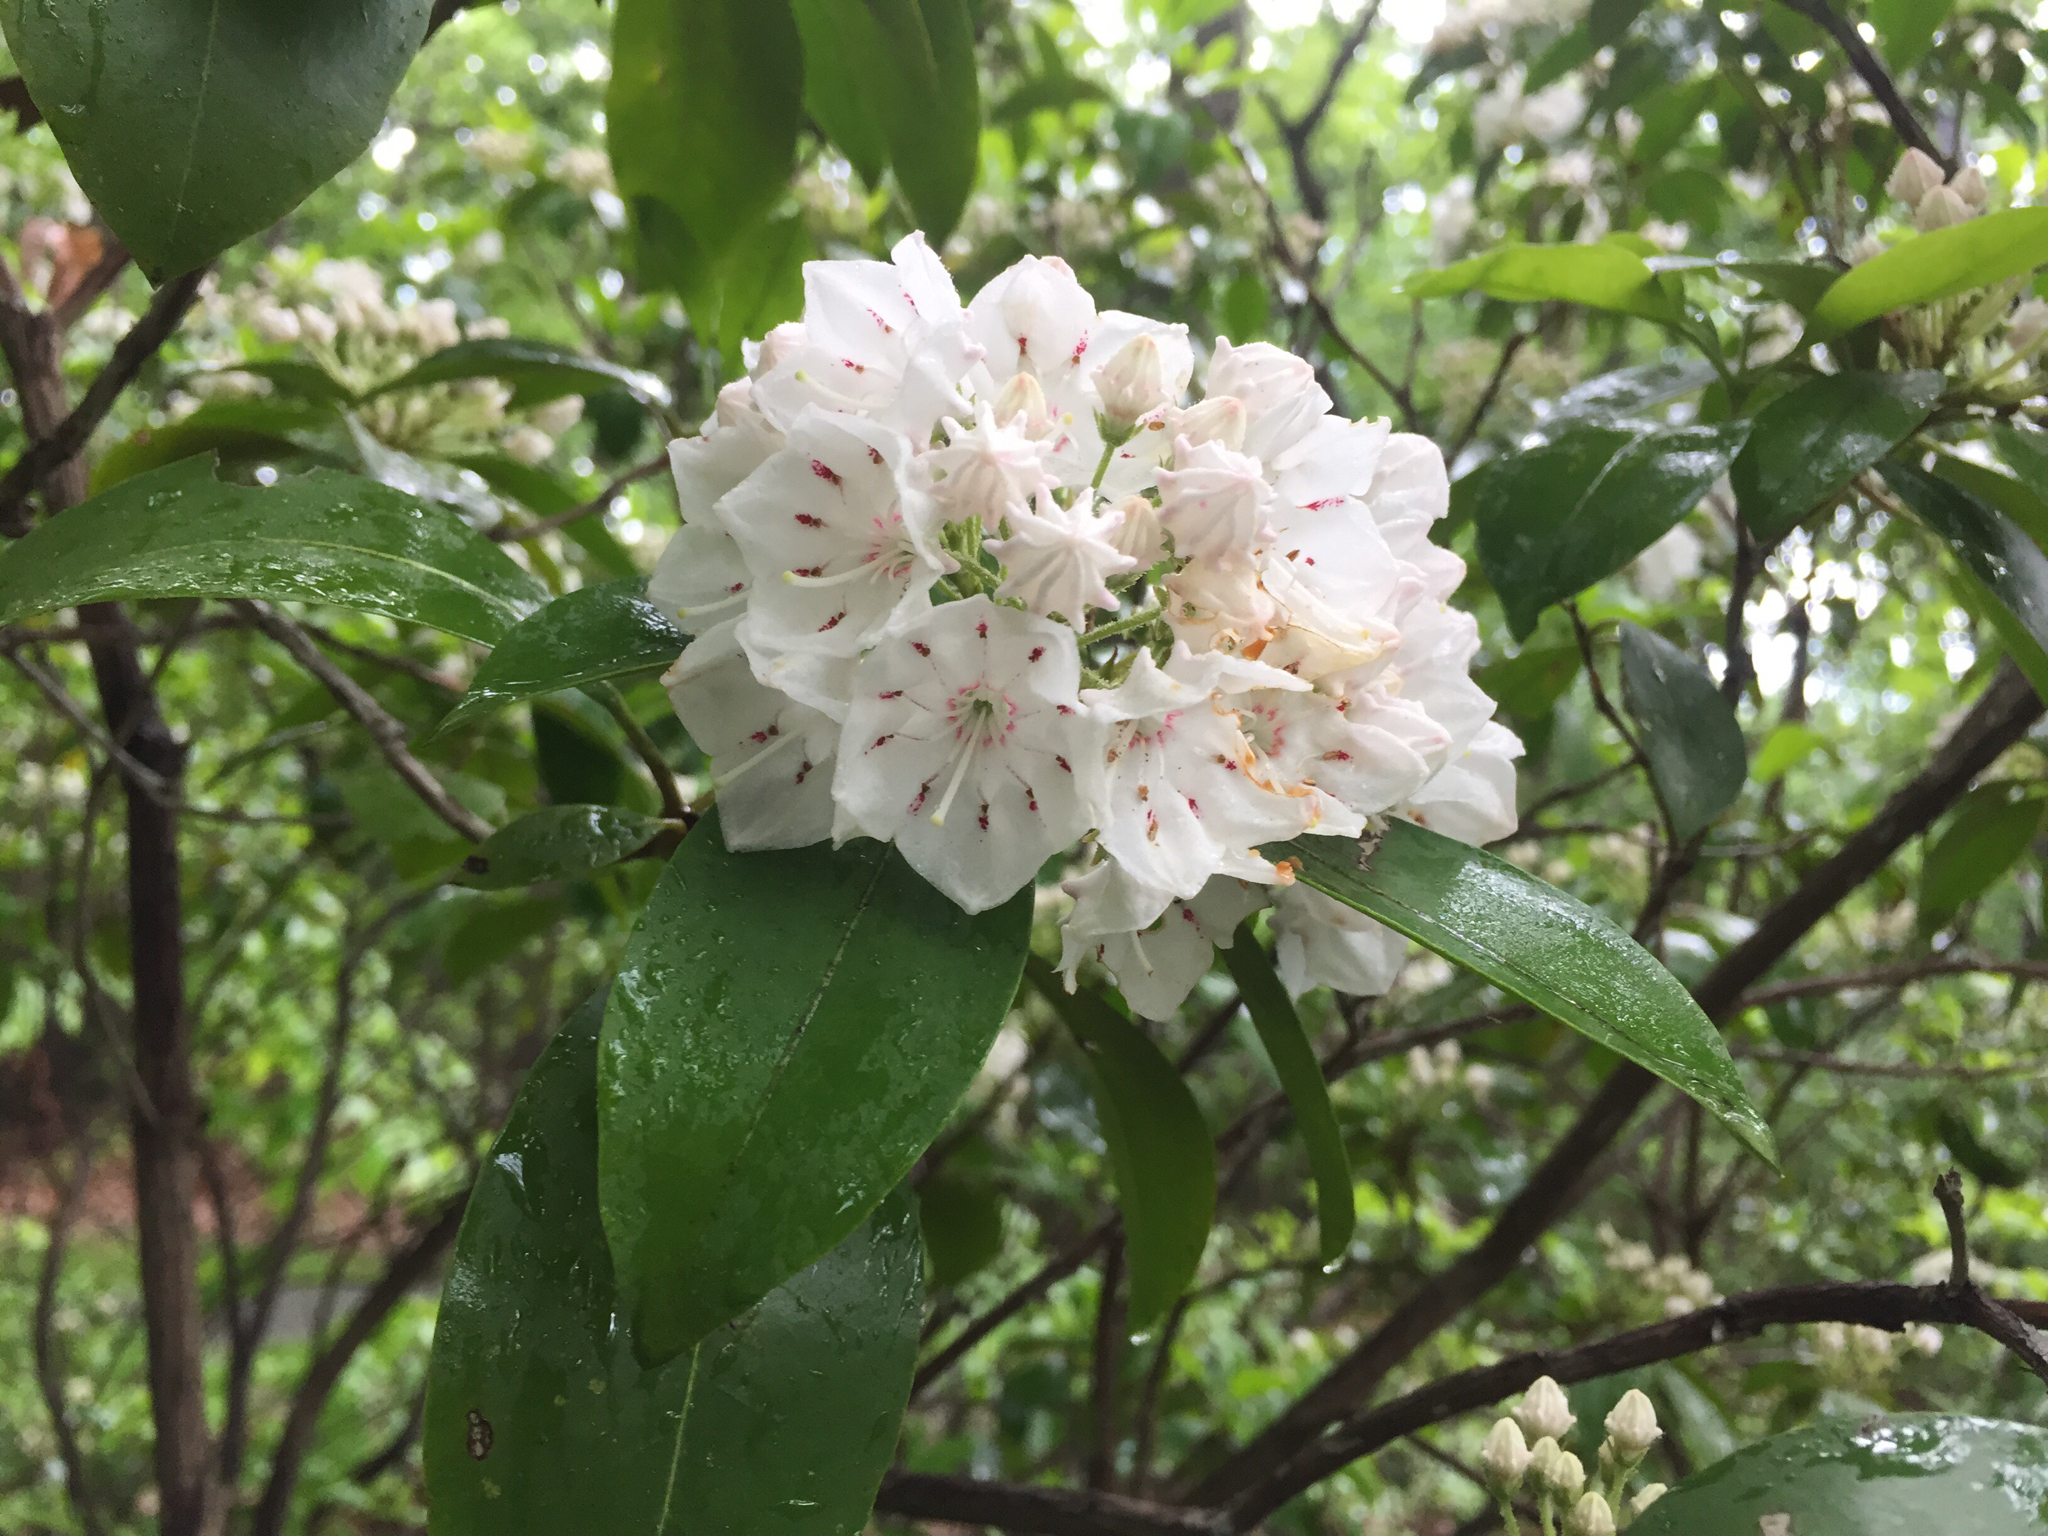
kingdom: Plantae
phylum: Tracheophyta
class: Magnoliopsida
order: Ericales
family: Ericaceae
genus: Kalmia
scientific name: Kalmia latifolia
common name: Mountain-laurel
